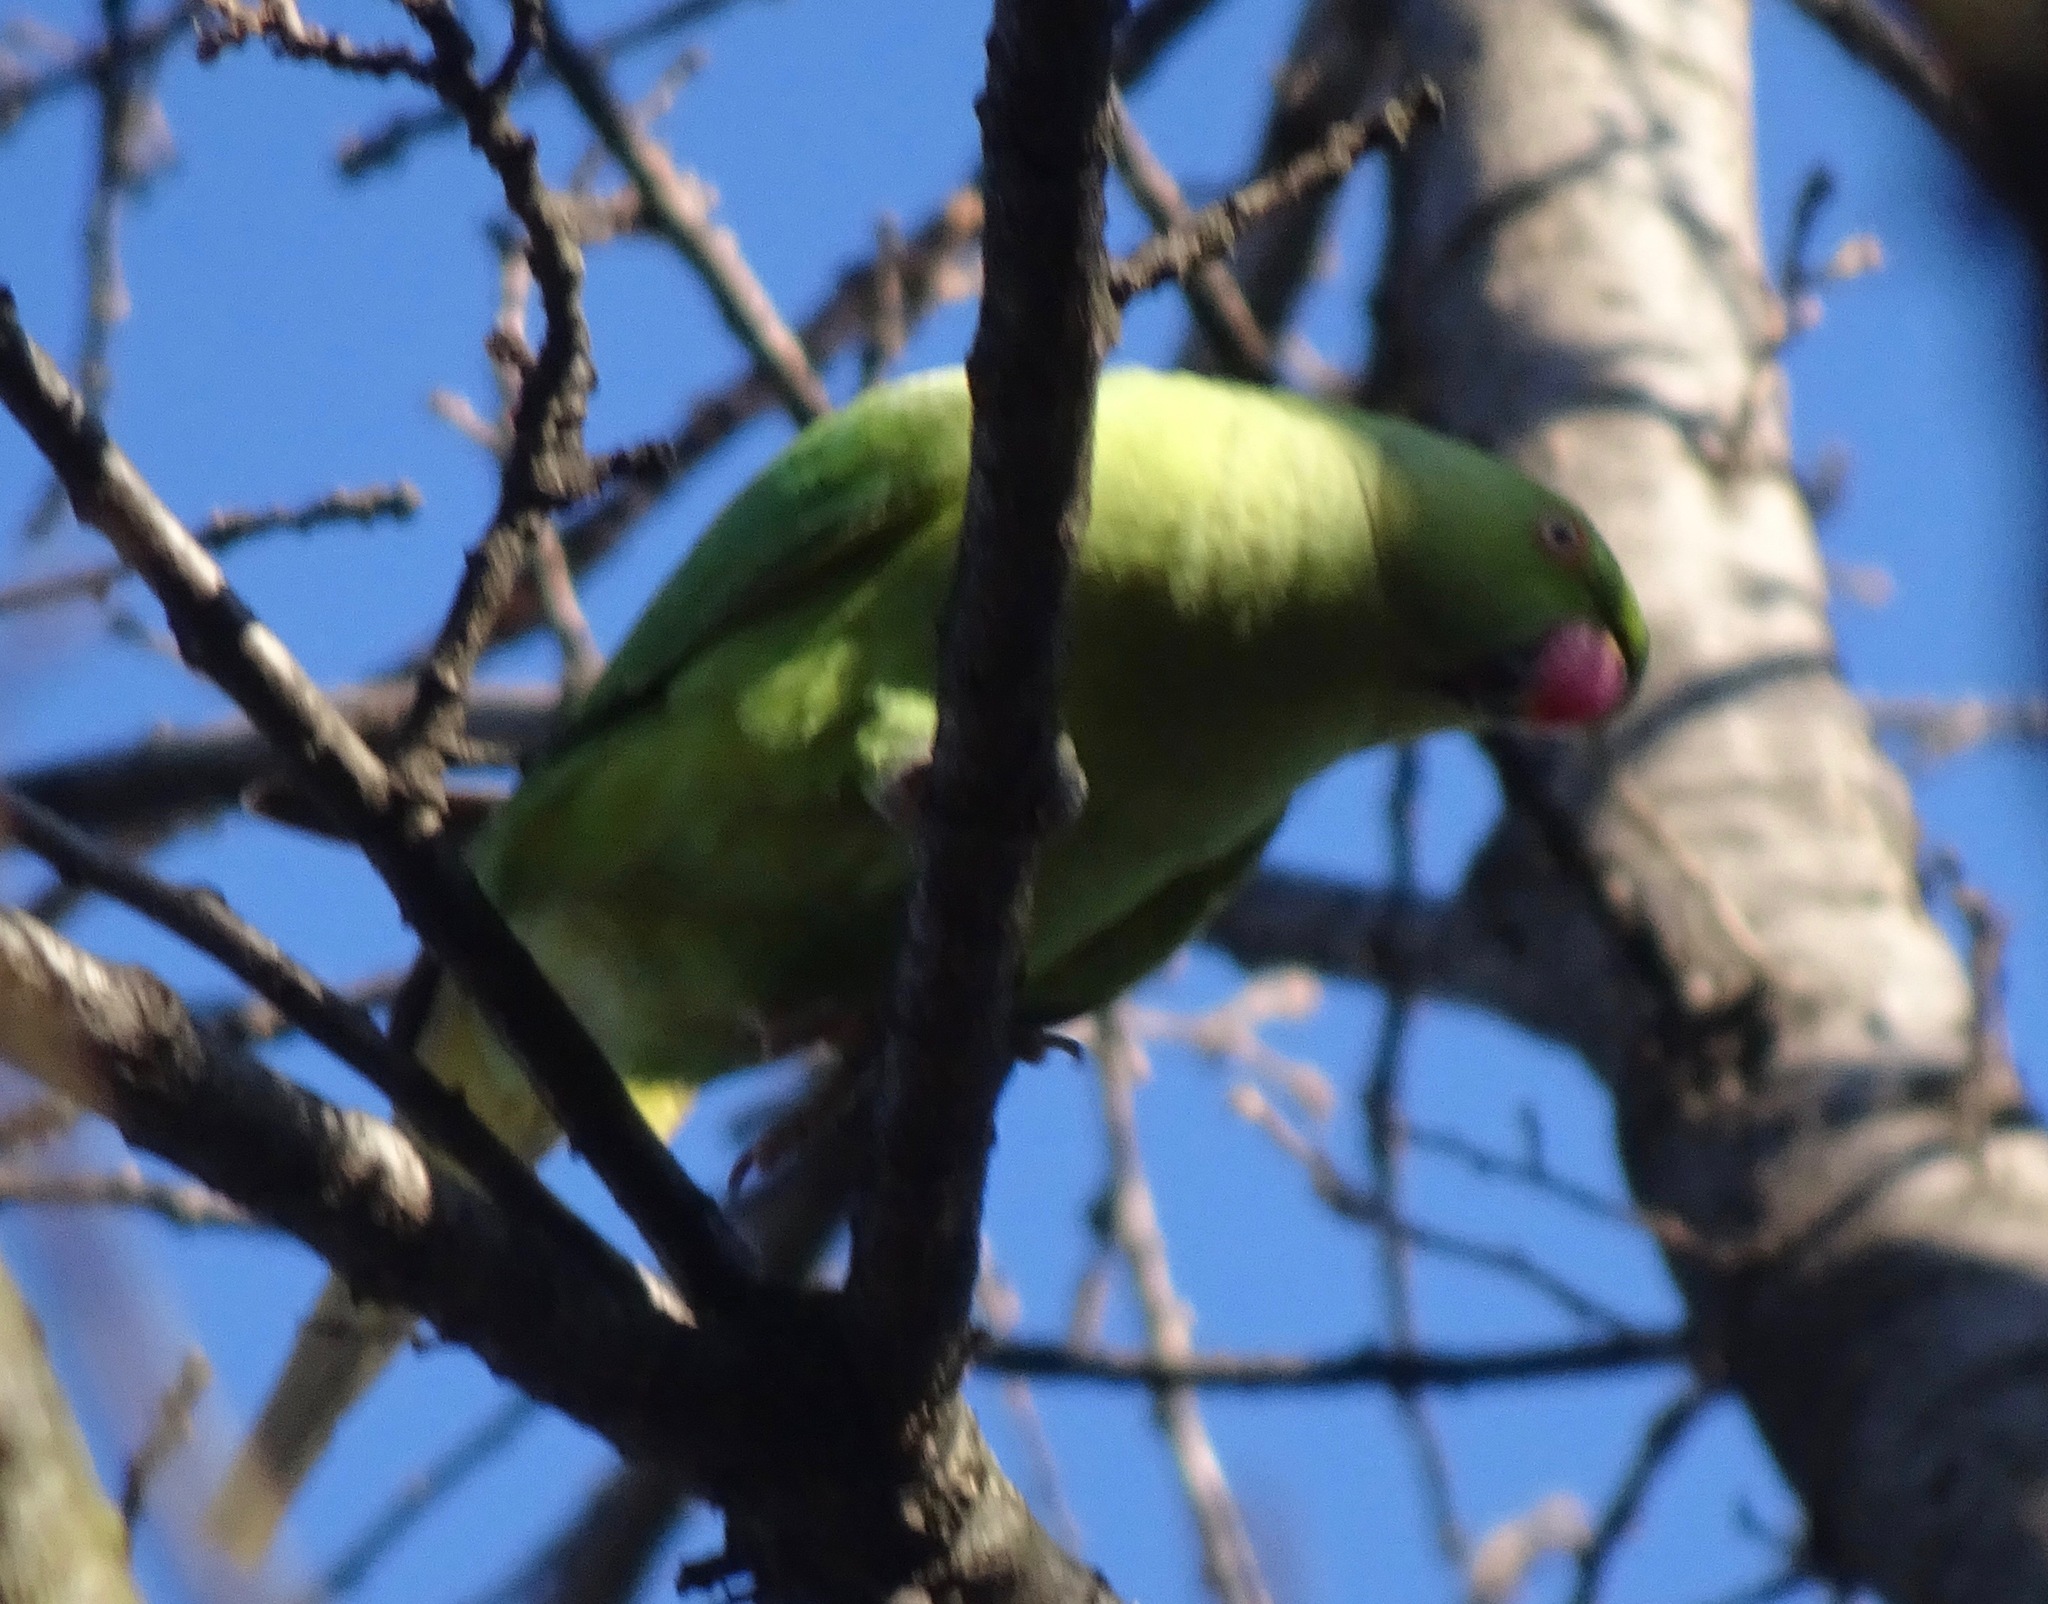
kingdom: Animalia
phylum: Chordata
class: Aves
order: Psittaciformes
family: Psittacidae
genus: Psittacula
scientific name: Psittacula krameri
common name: Rose-ringed parakeet
